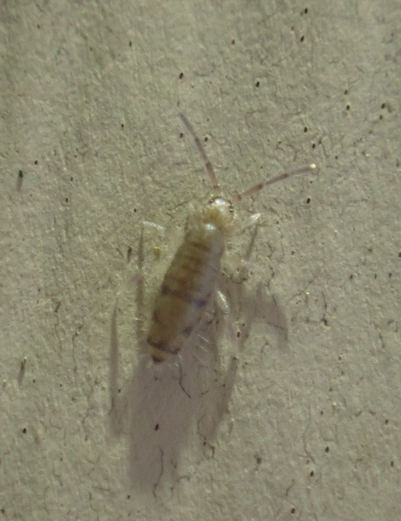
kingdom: Animalia
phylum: Arthropoda
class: Collembola
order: Entomobryomorpha
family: Entomobryidae
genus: Willowsia
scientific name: Willowsia nigromaculata
